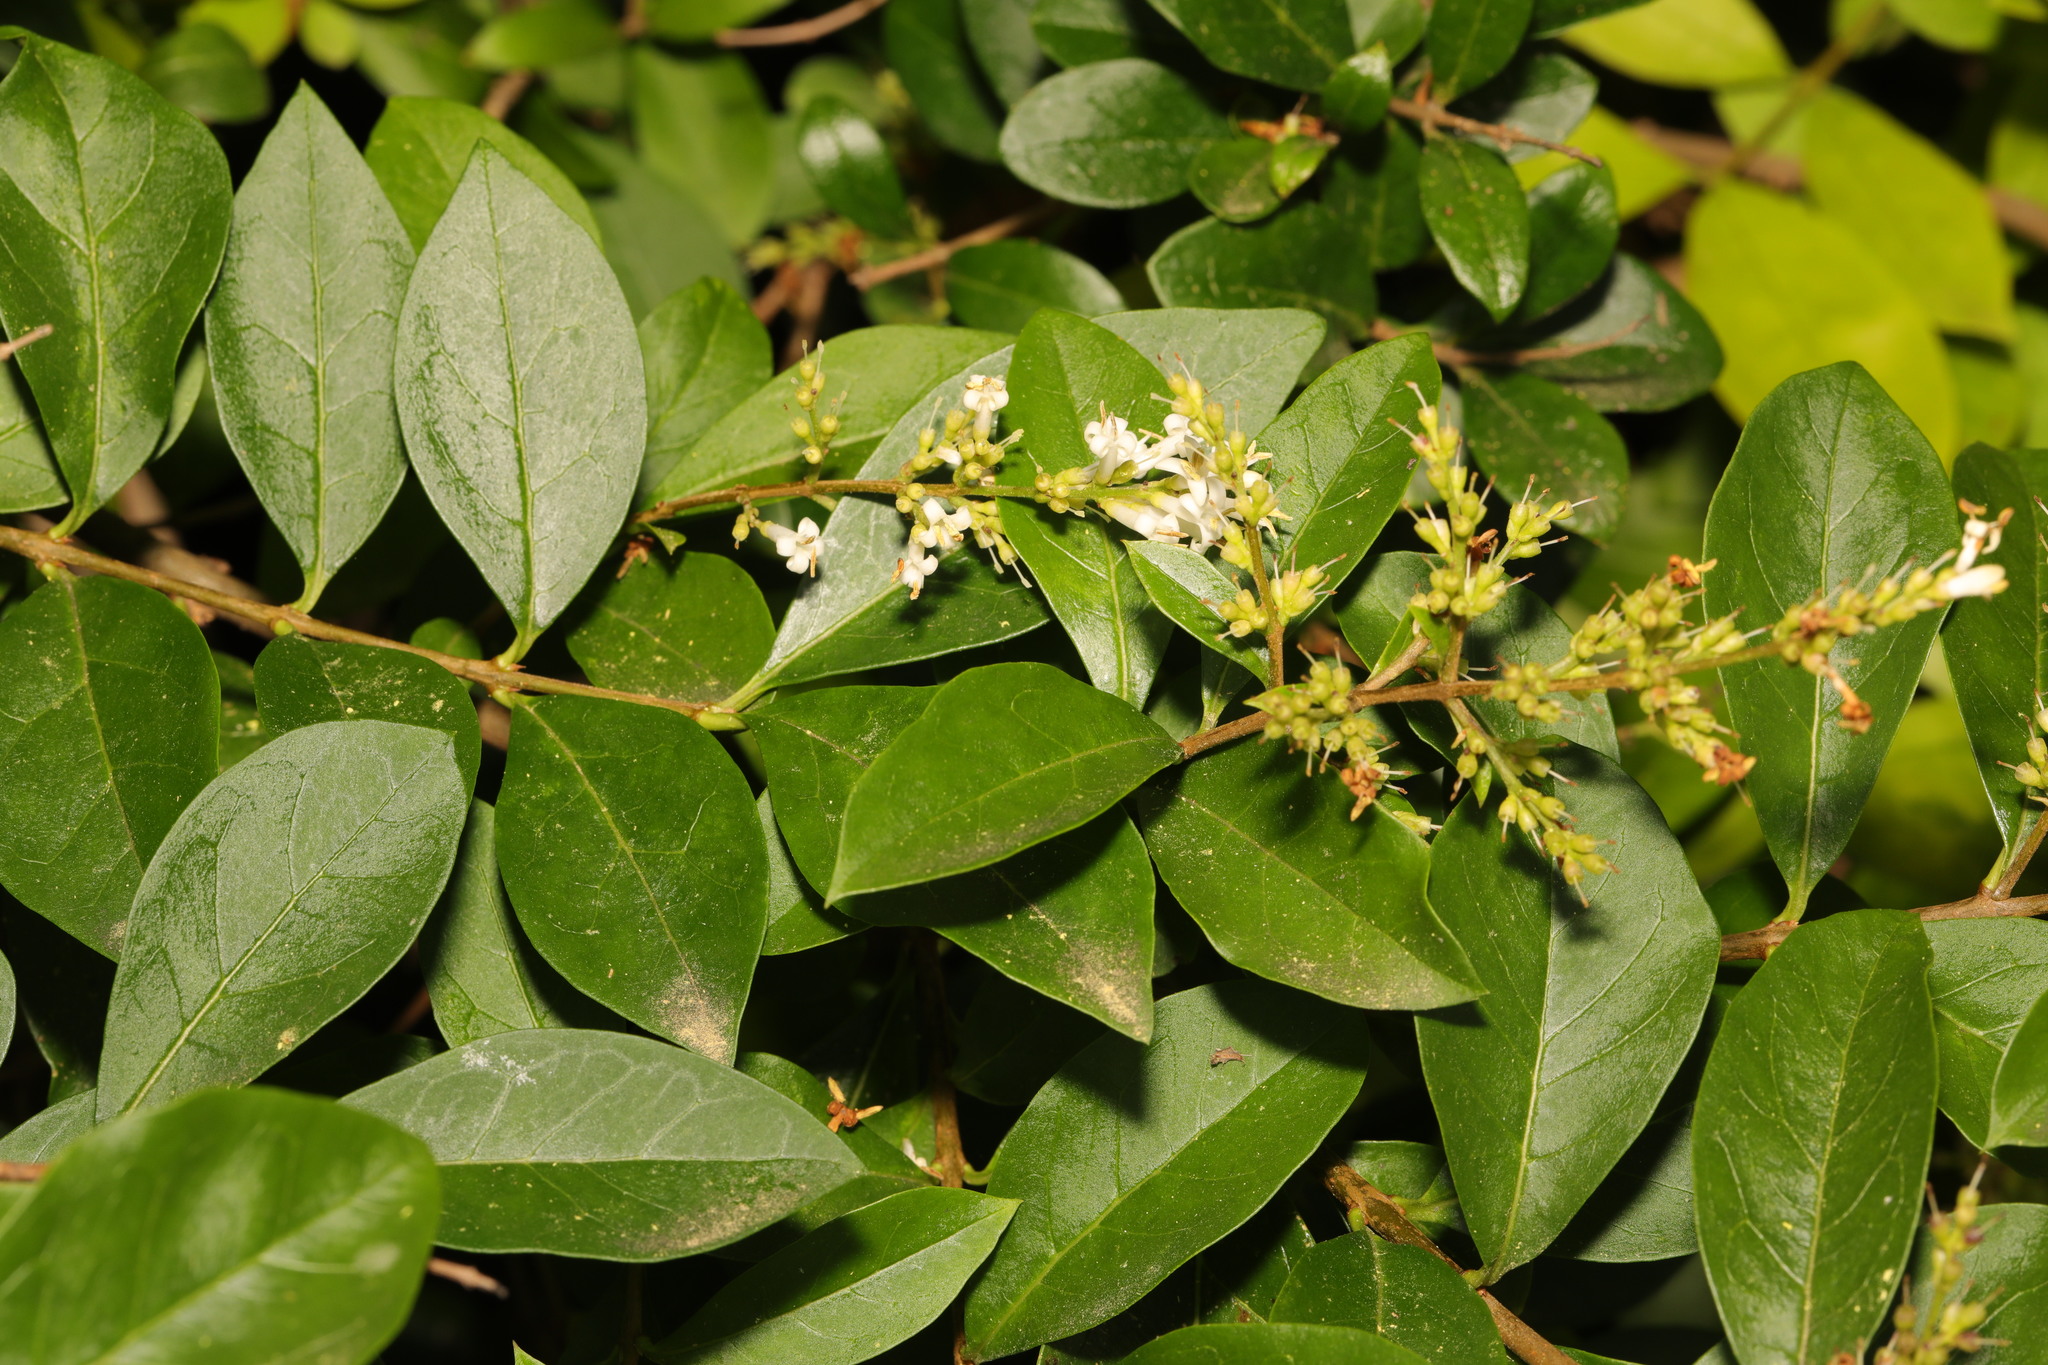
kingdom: Plantae
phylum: Tracheophyta
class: Magnoliopsida
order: Lamiales
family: Oleaceae
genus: Ligustrum
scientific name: Ligustrum ovalifolium
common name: California privet
